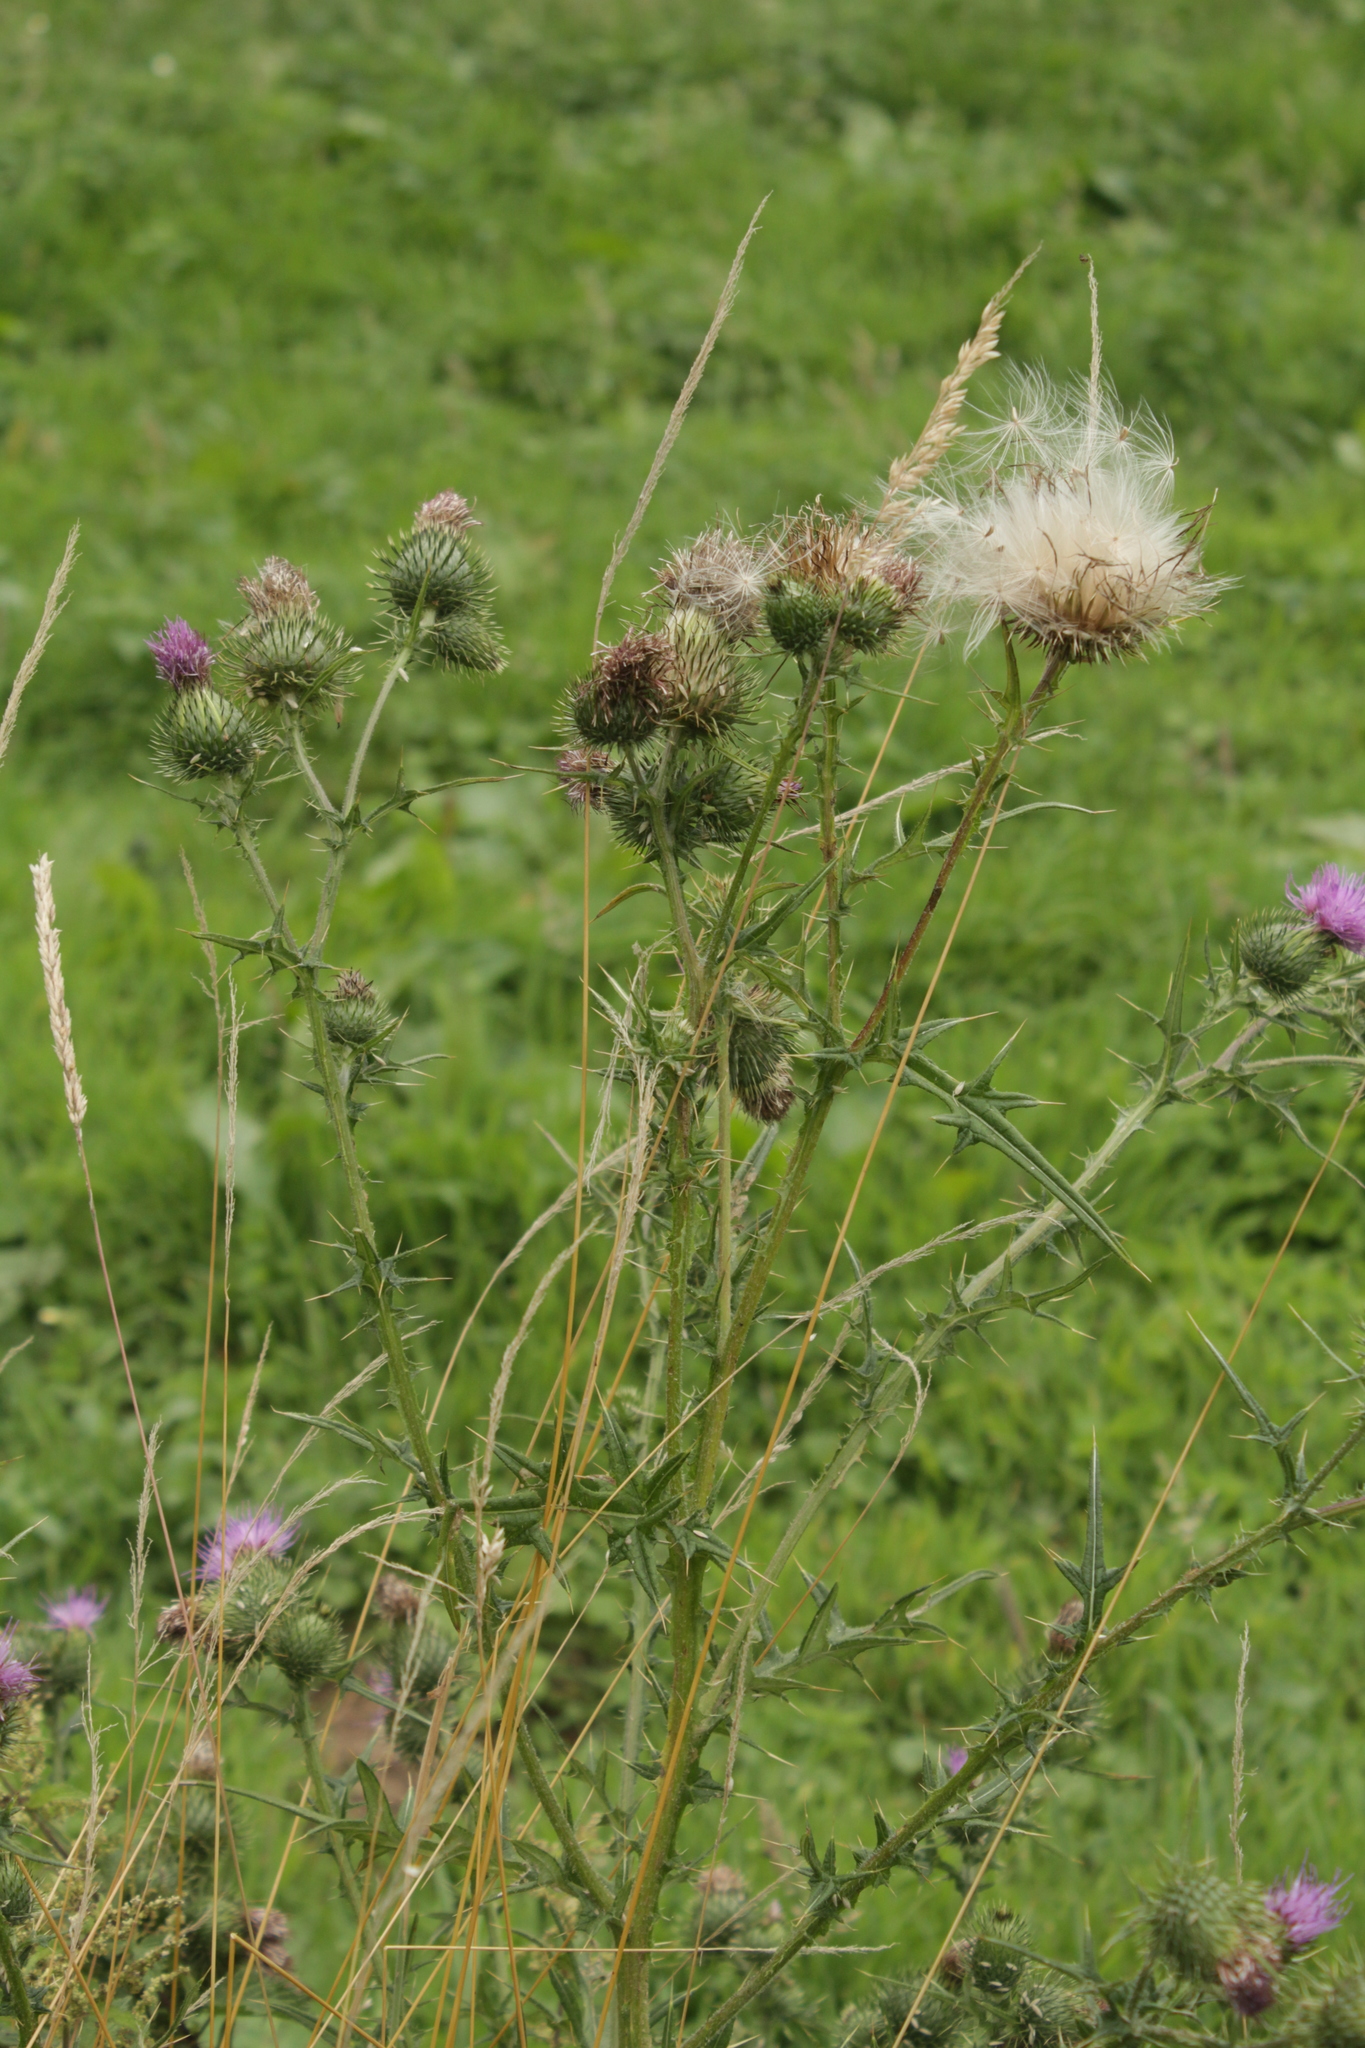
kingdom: Plantae
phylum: Tracheophyta
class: Magnoliopsida
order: Asterales
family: Asteraceae
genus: Cirsium
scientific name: Cirsium vulgare
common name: Bull thistle
